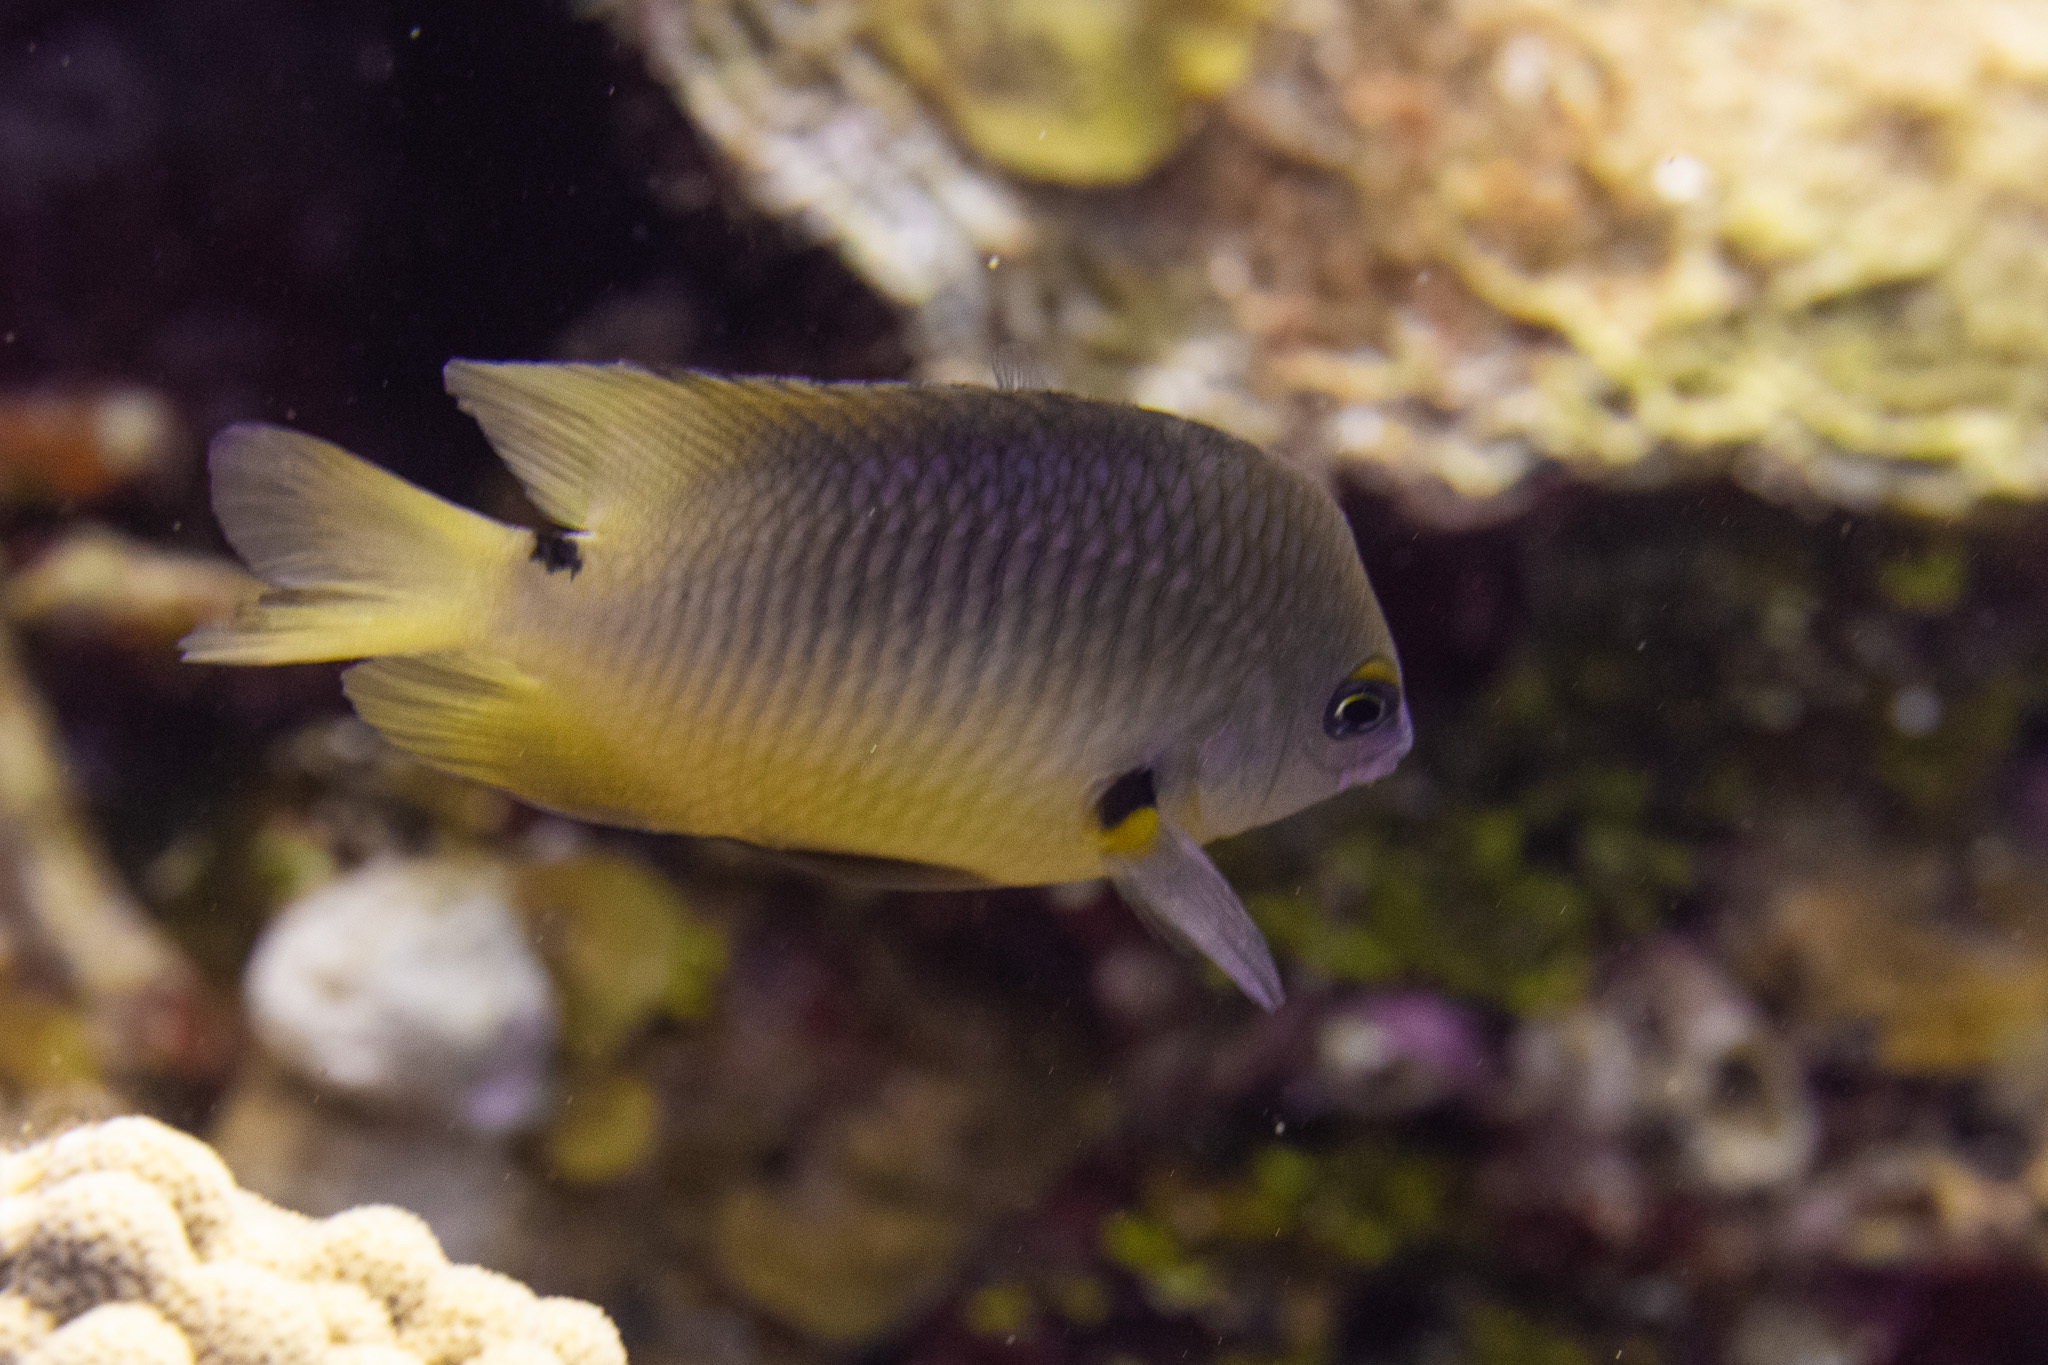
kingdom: Animalia
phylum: Chordata
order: Perciformes
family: Pomacentridae
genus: Stegastes
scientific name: Stegastes planifrons
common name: Threespot damselfish
